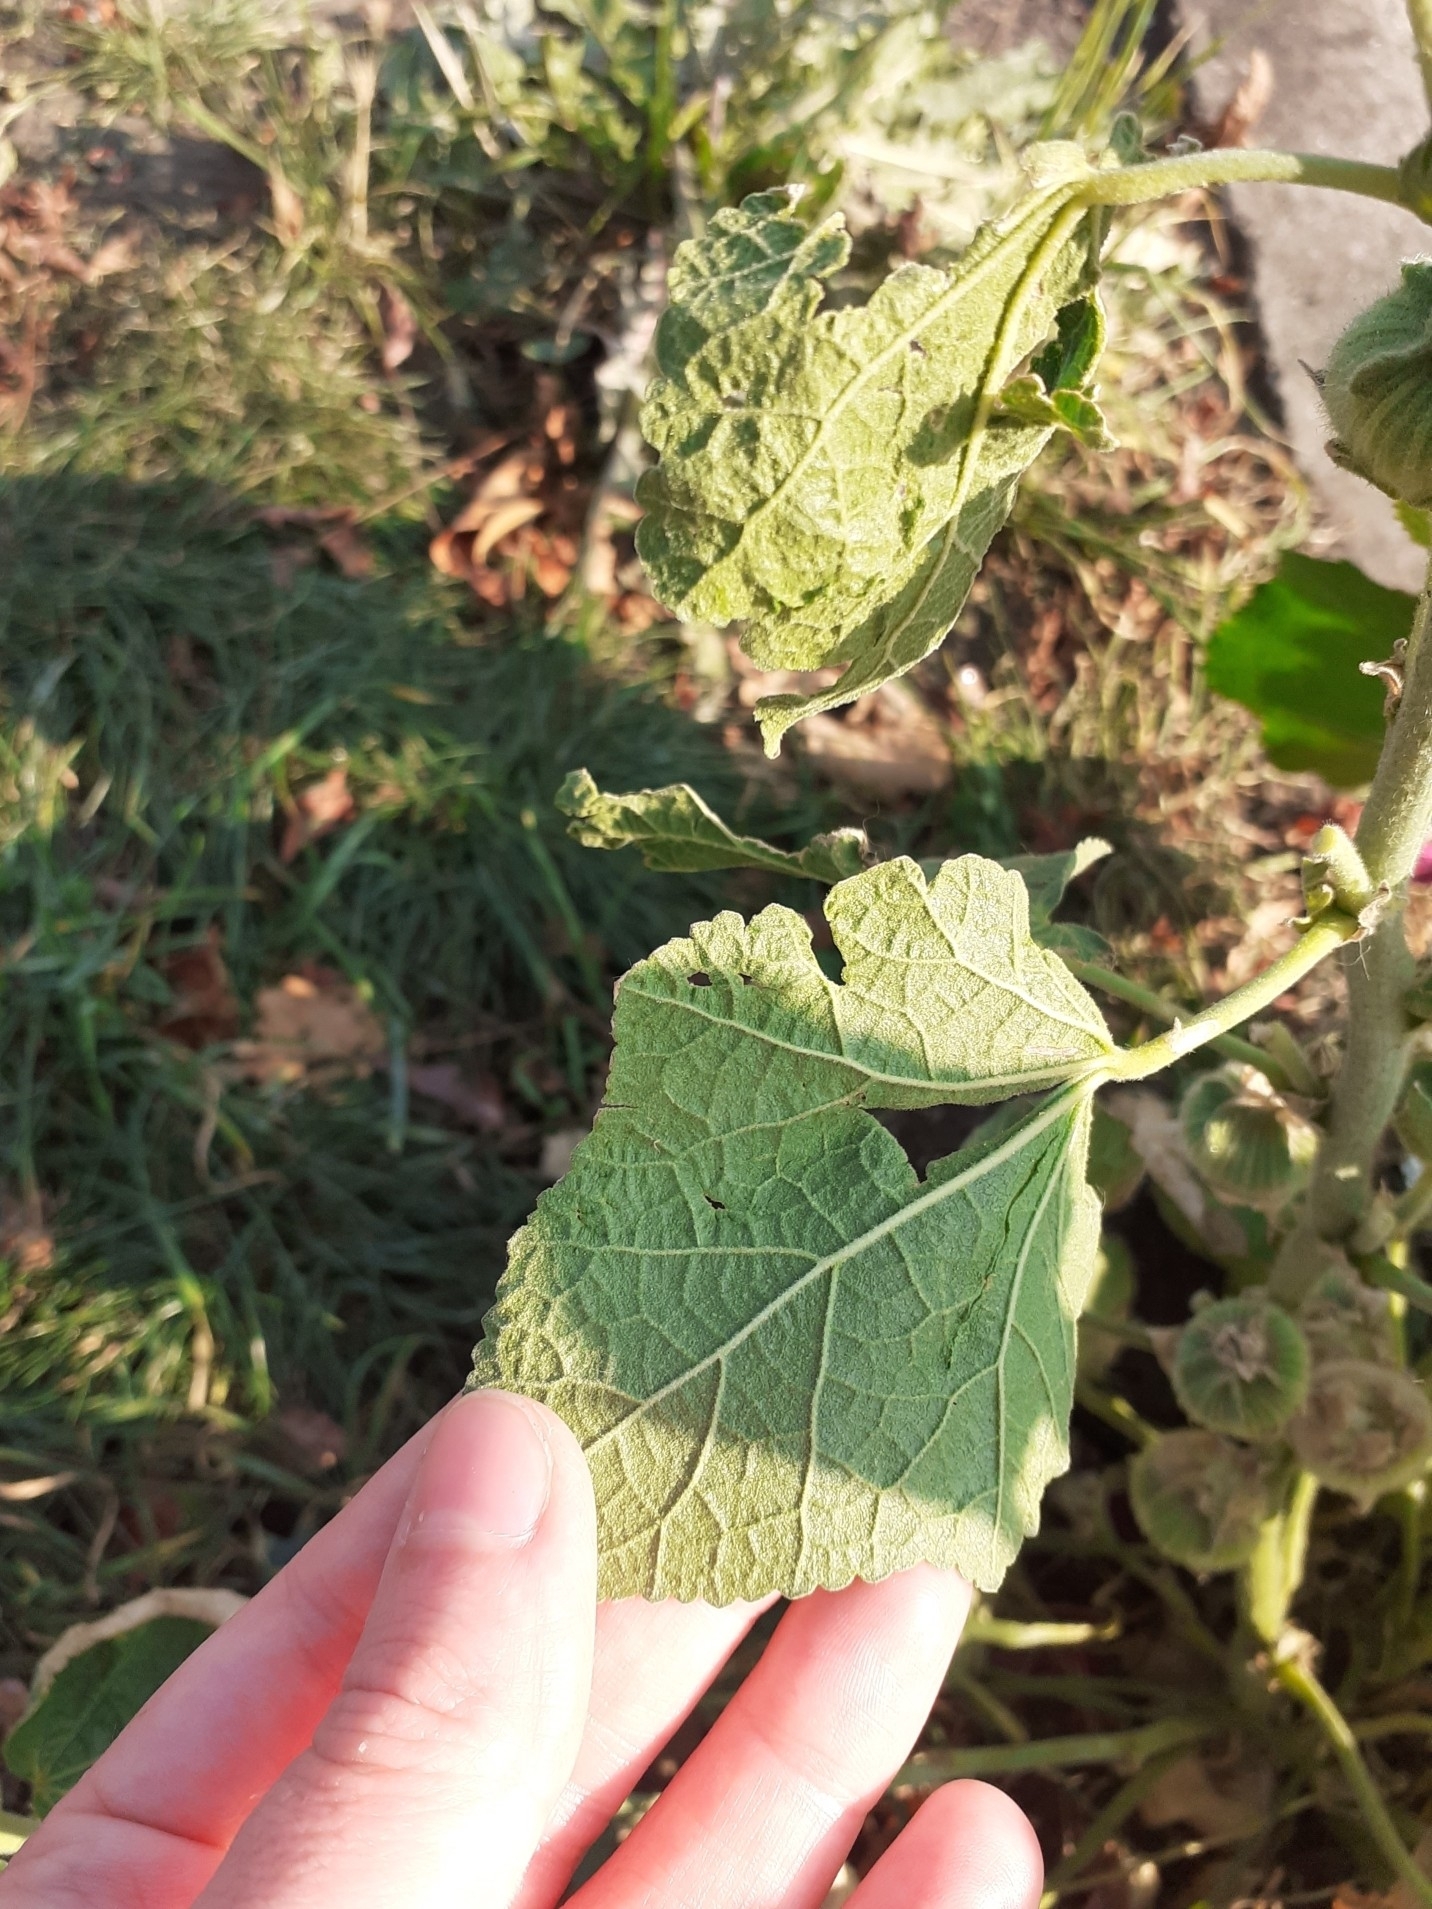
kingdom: Plantae
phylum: Tracheophyta
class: Magnoliopsida
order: Malvales
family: Malvaceae
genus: Alcea
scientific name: Alcea rosea
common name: Hollyhock
